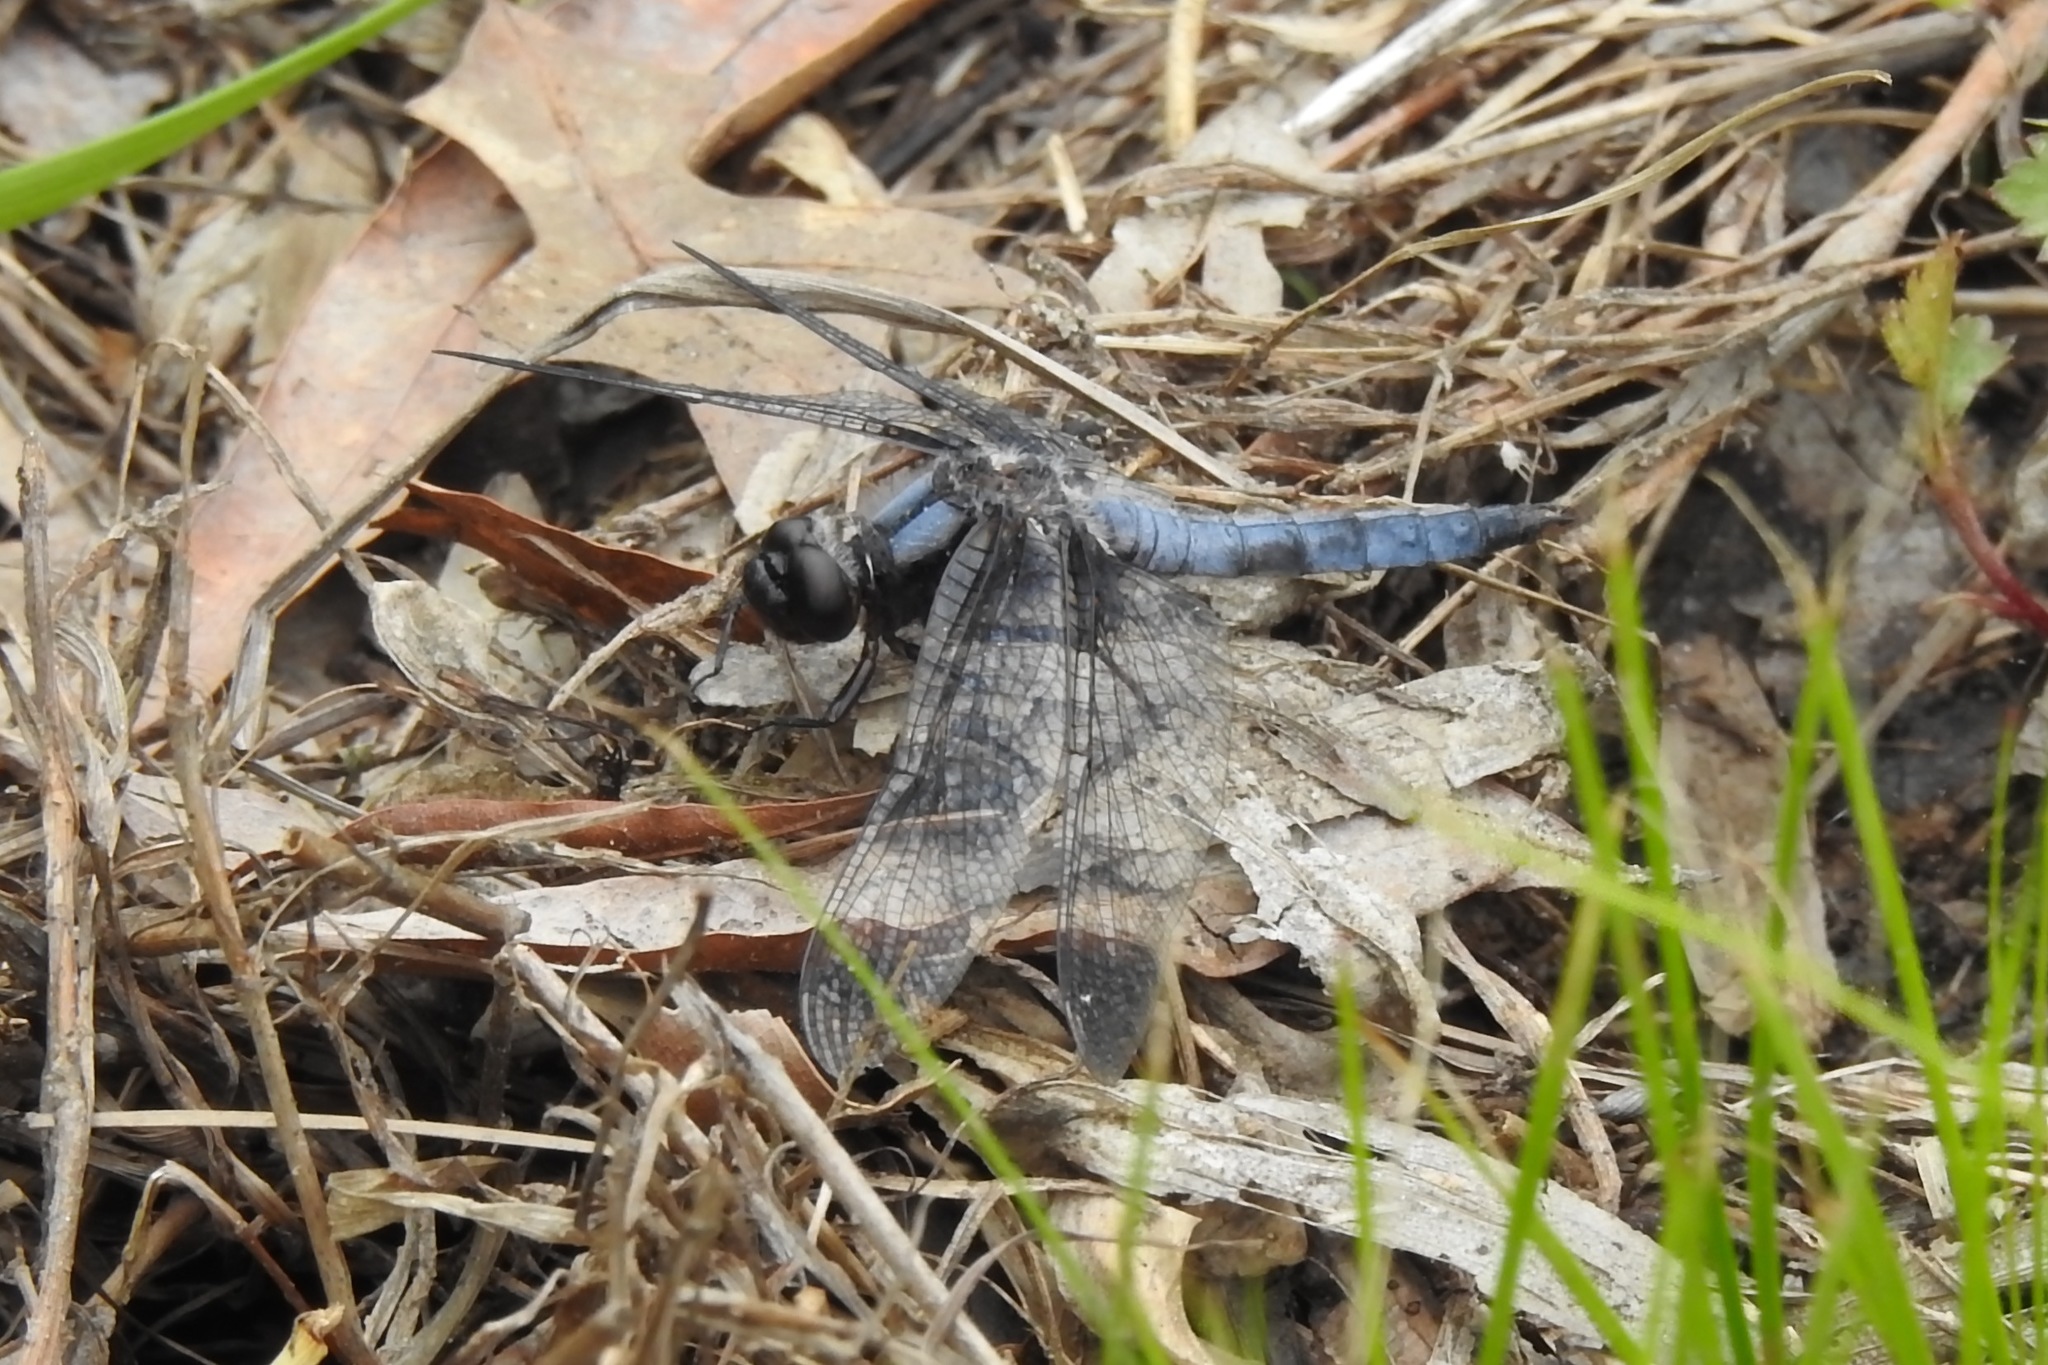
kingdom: Animalia
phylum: Arthropoda
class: Insecta
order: Odonata
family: Libellulidae
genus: Ladona
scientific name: Ladona deplanata
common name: Blue corporal
